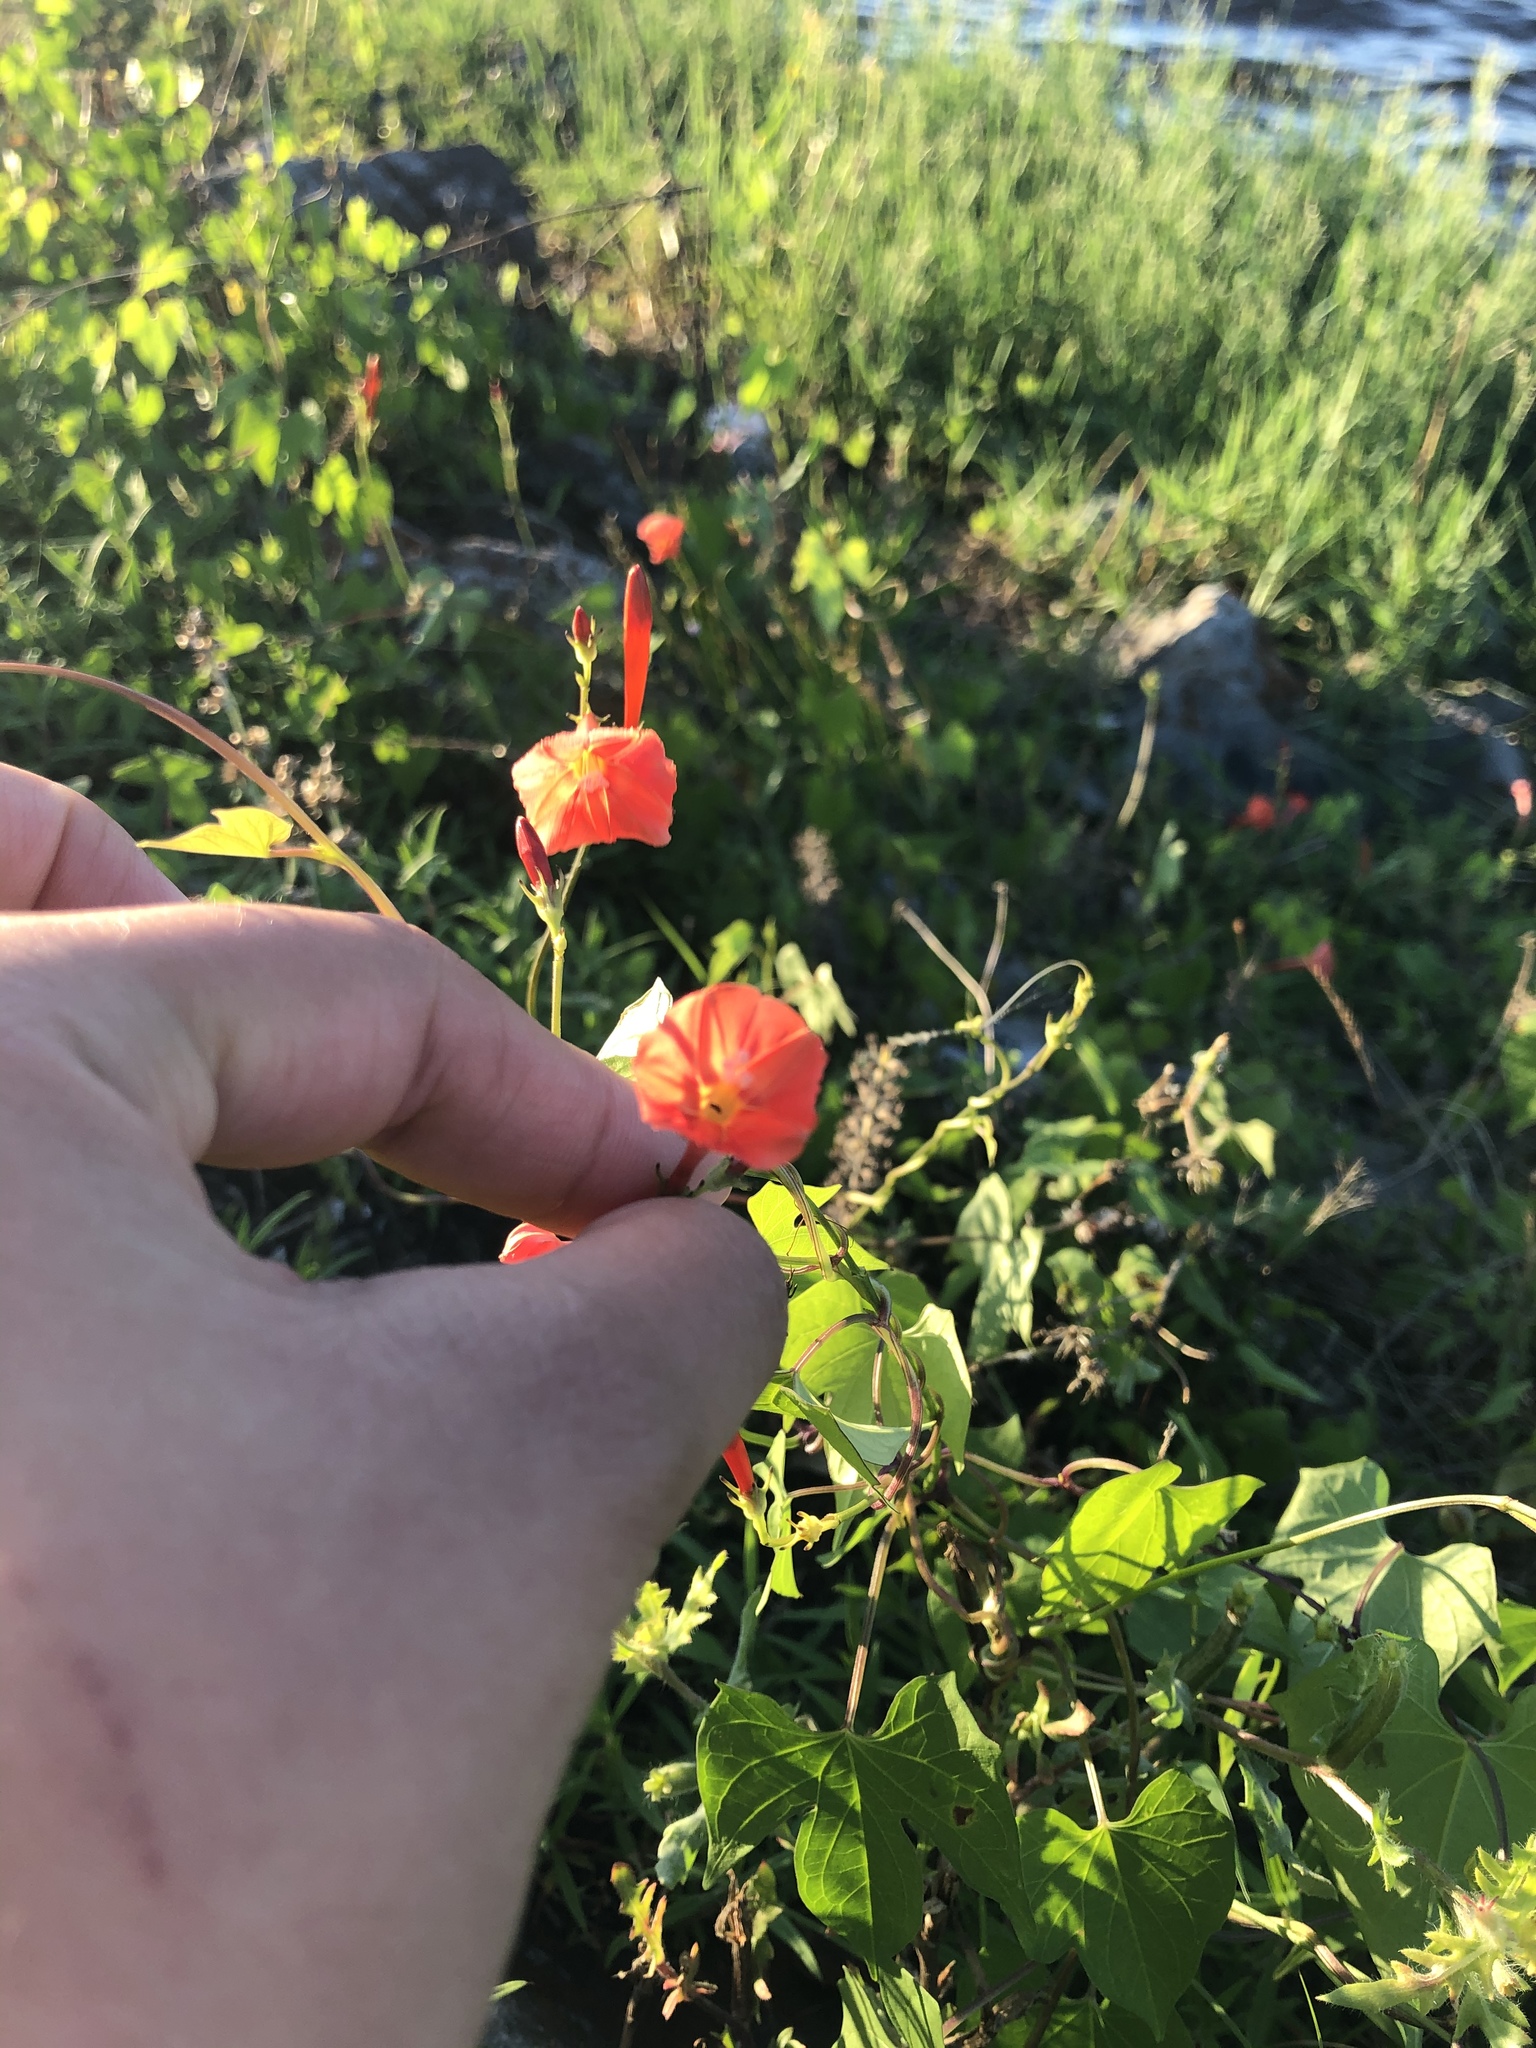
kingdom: Plantae
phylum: Tracheophyta
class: Magnoliopsida
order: Solanales
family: Convolvulaceae
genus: Ipomoea
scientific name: Ipomoea hederifolia
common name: Ivy-leaf morning-glory
